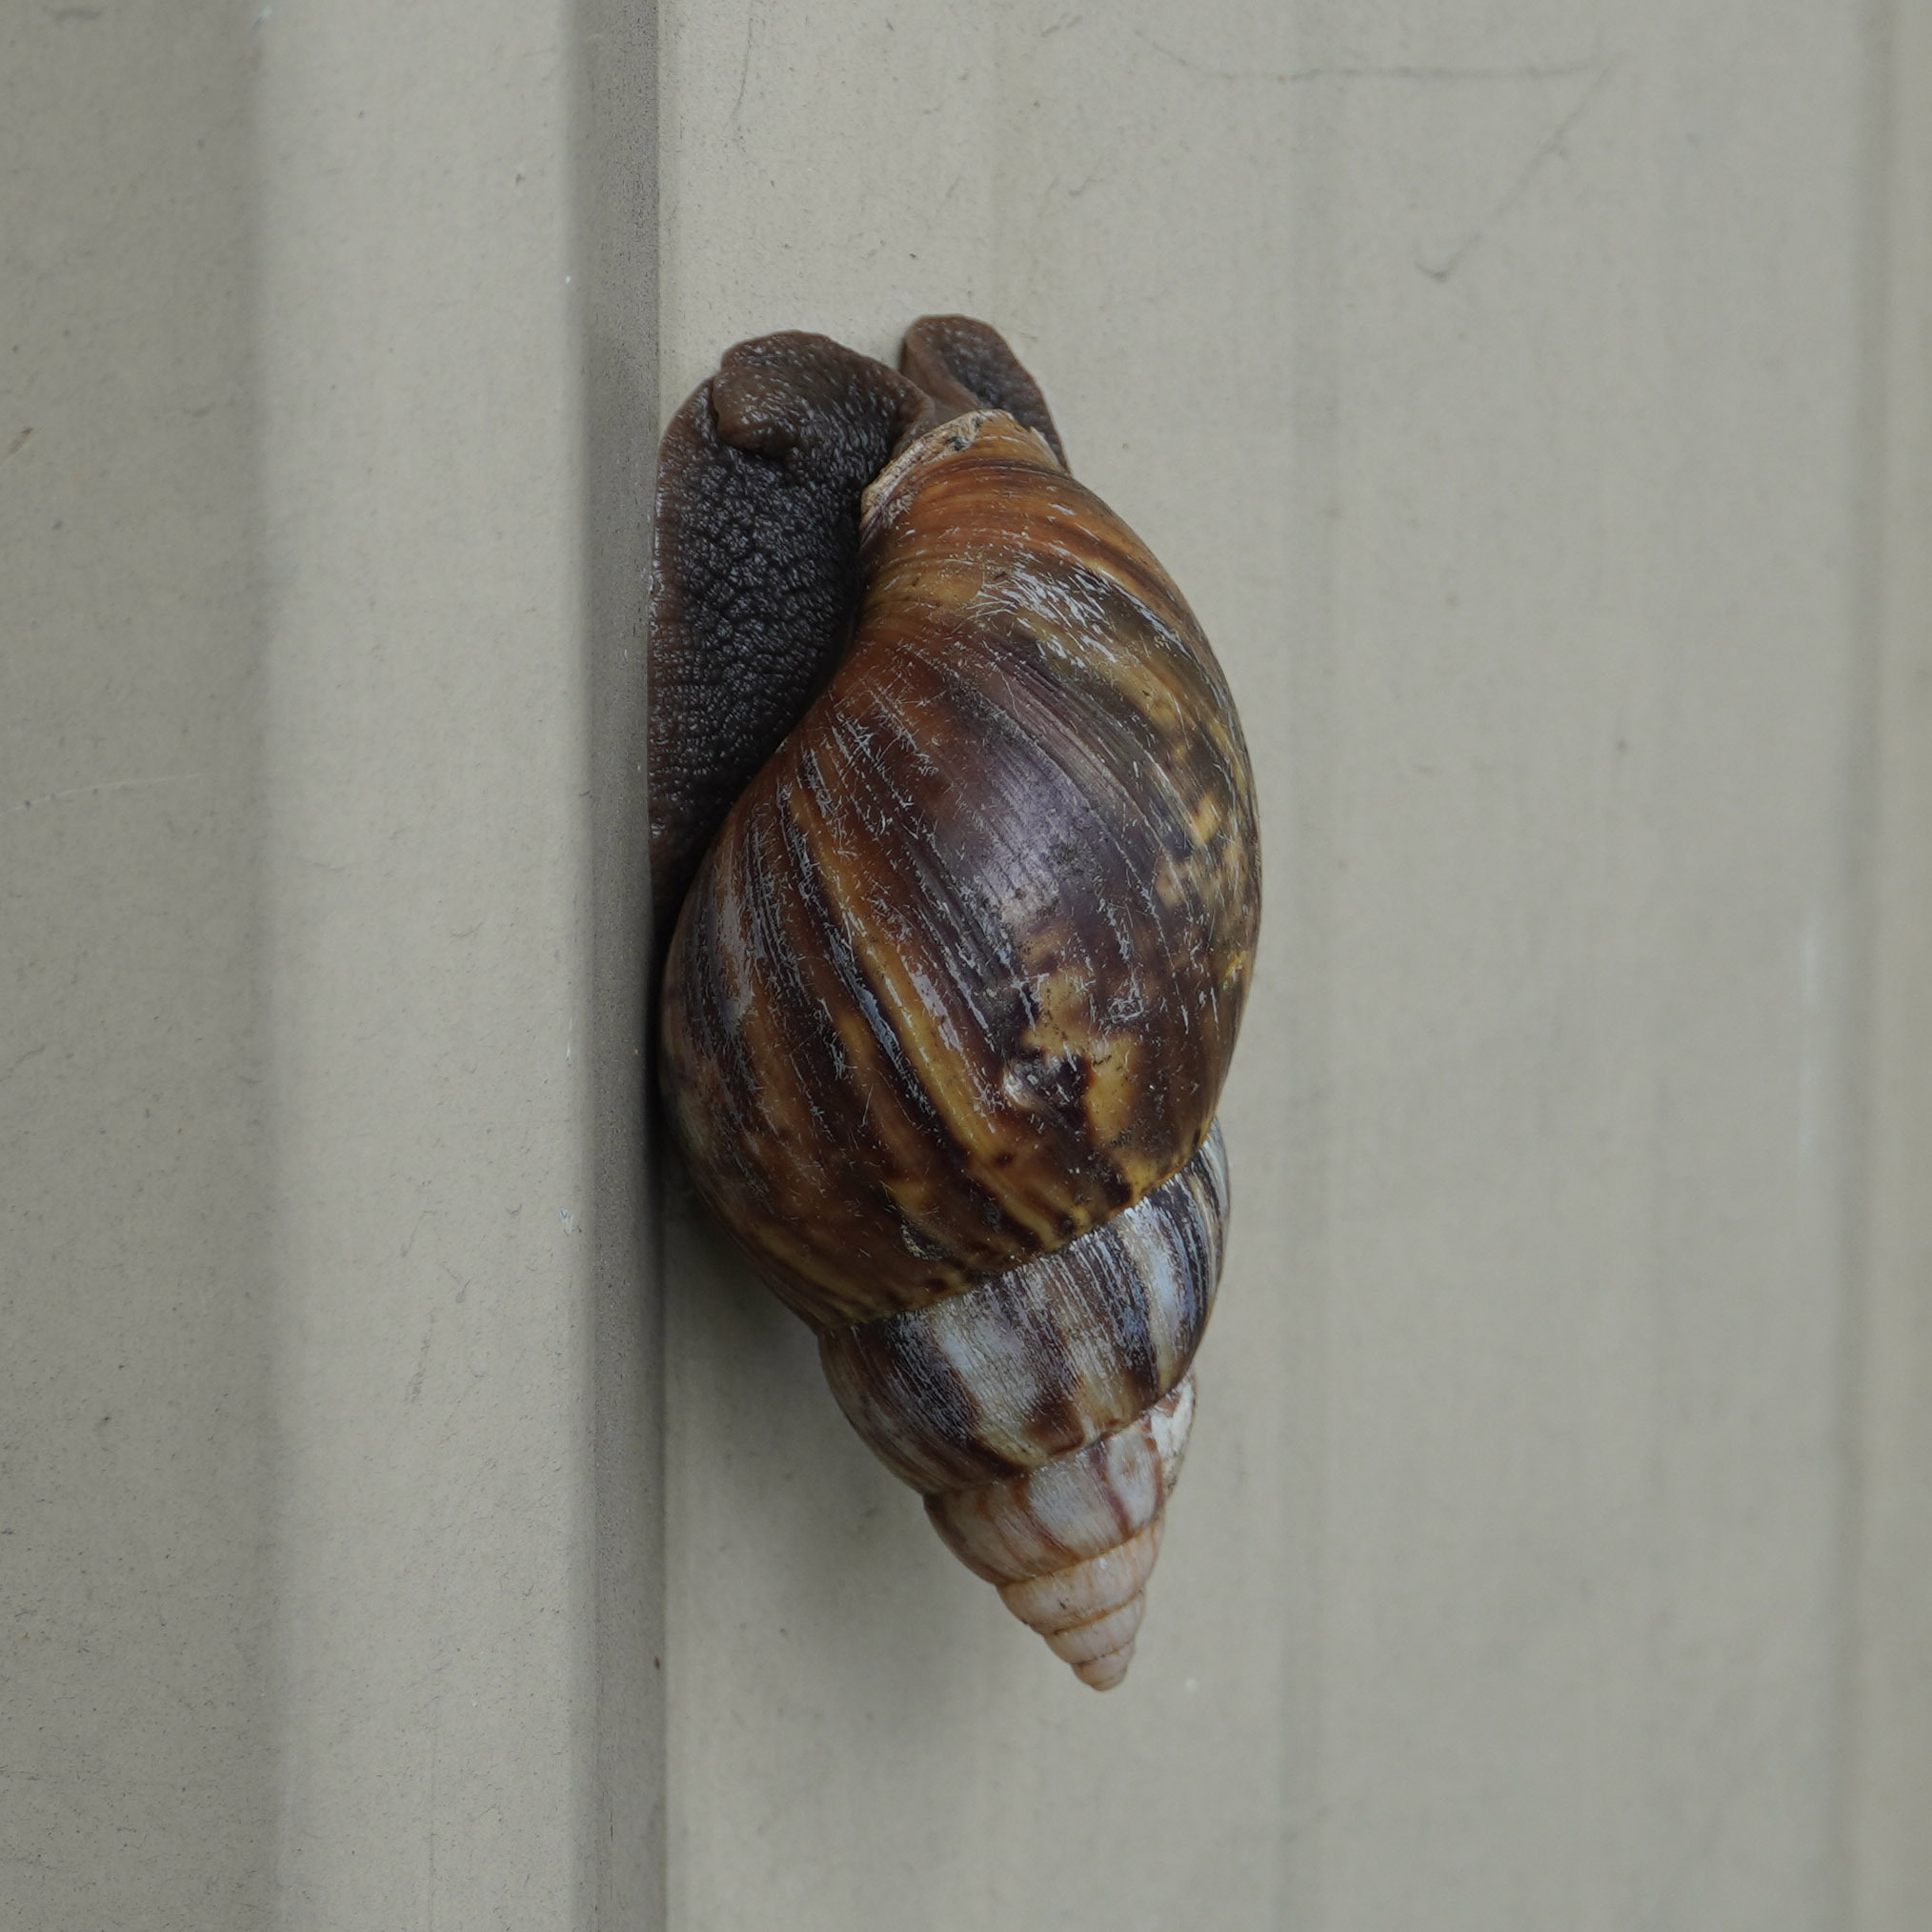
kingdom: Animalia
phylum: Mollusca
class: Gastropoda
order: Stylommatophora
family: Achatinidae
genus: Lissachatina
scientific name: Lissachatina fulica
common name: Giant african snail
